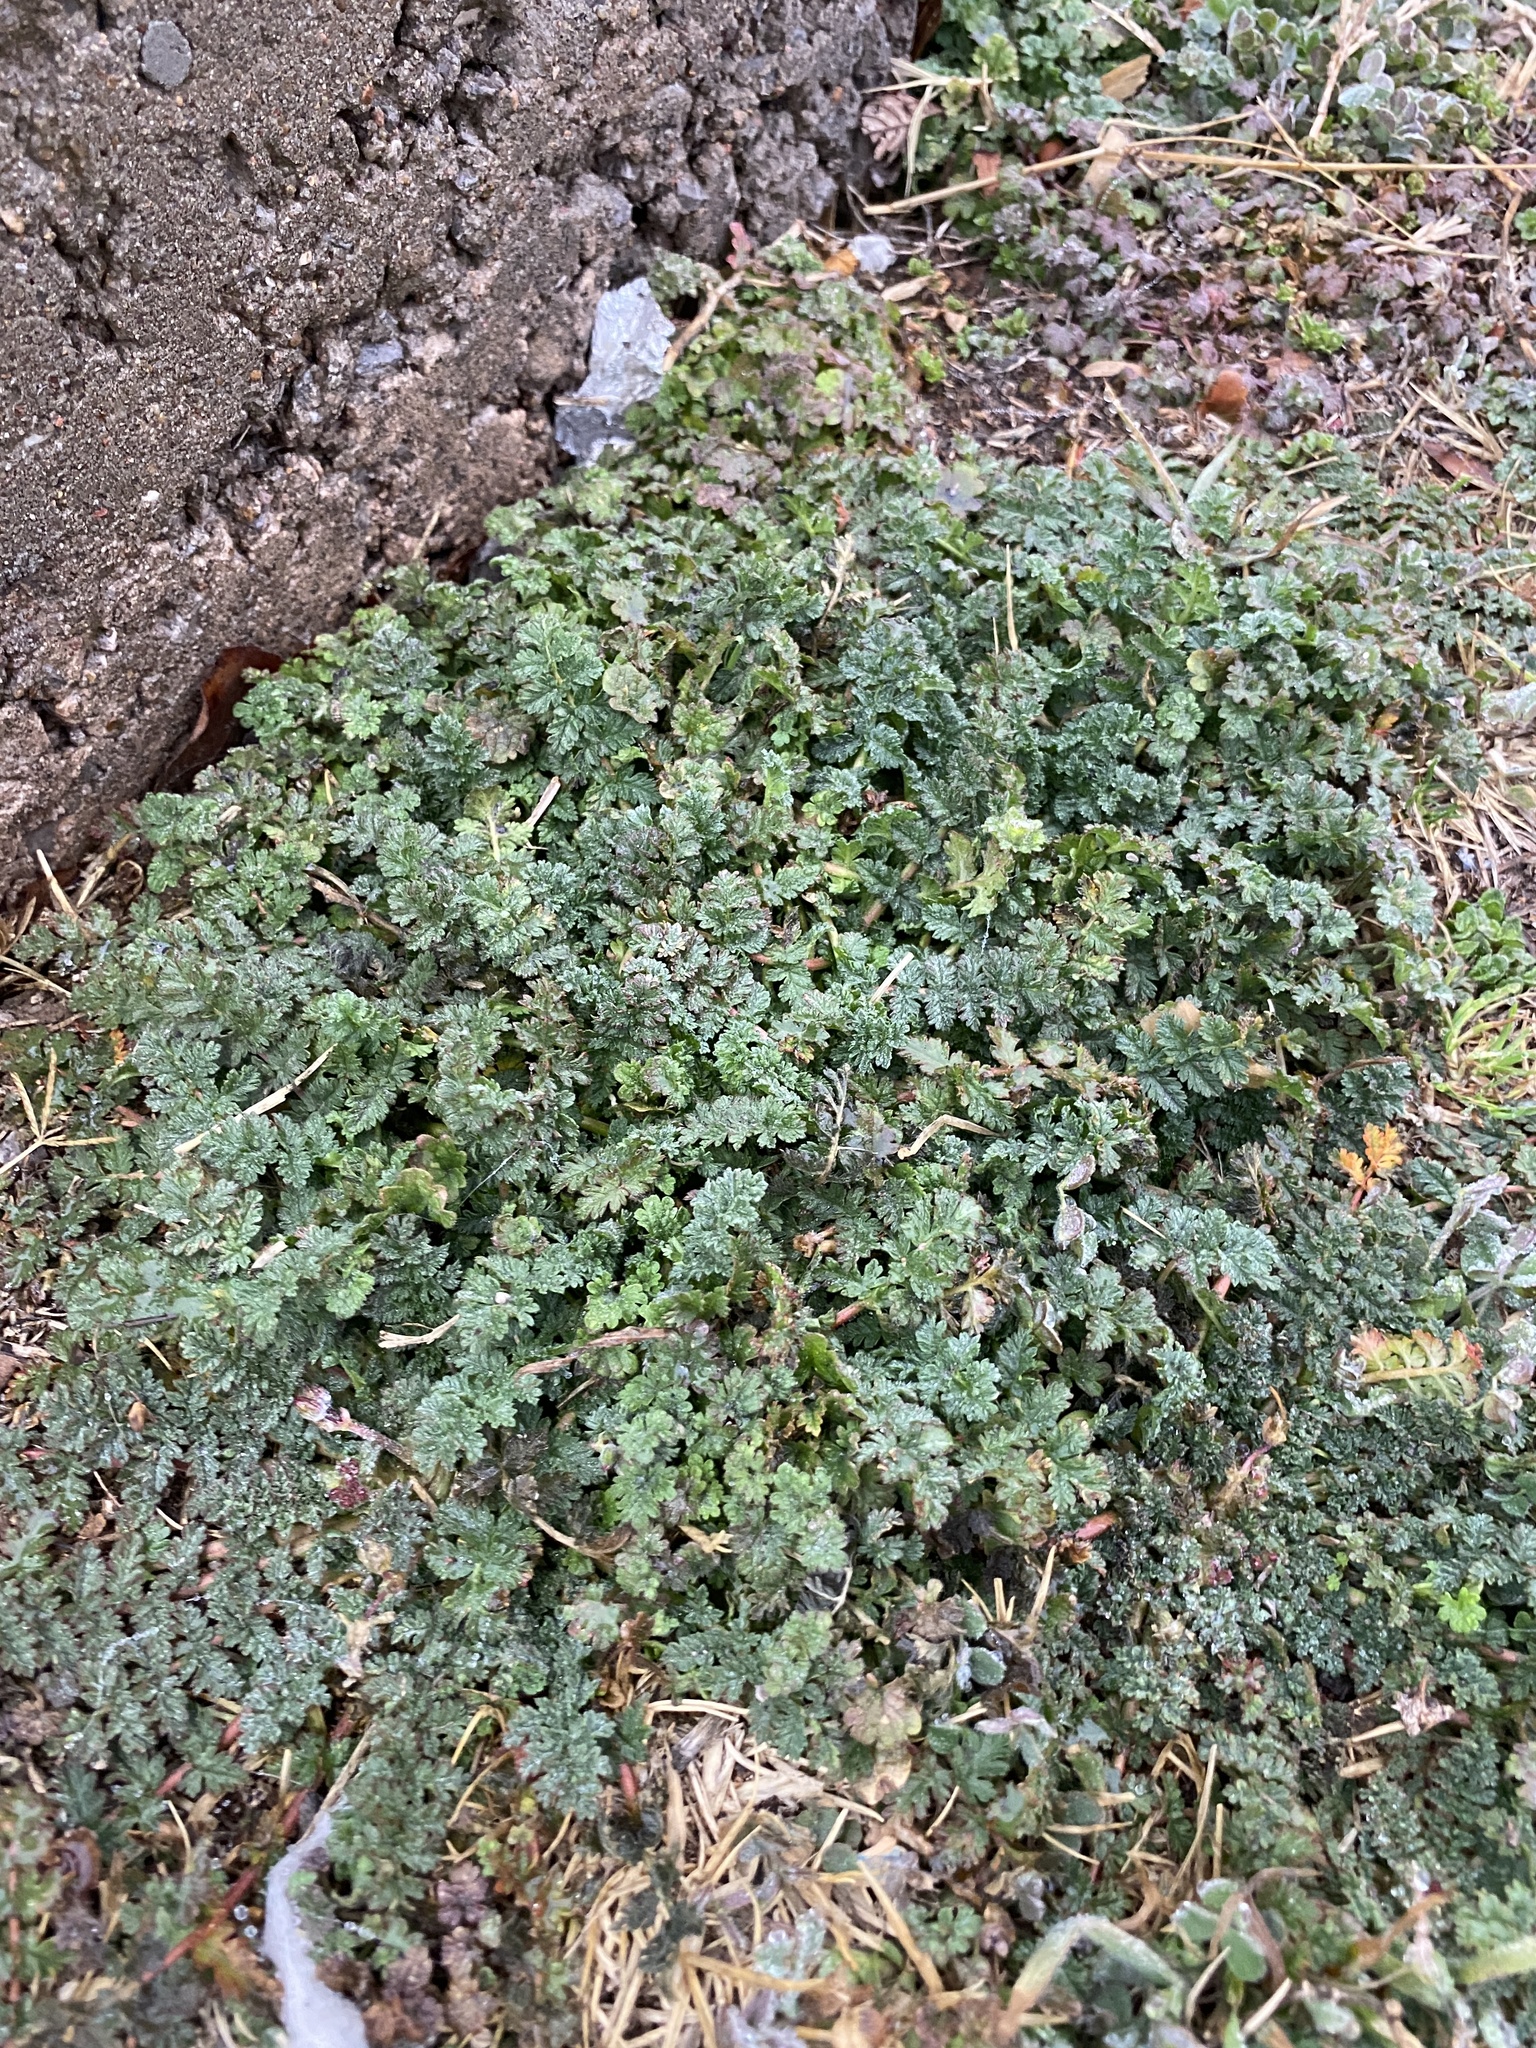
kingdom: Plantae
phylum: Tracheophyta
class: Magnoliopsida
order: Geraniales
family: Geraniaceae
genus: Erodium
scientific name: Erodium cicutarium
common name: Common stork's-bill
